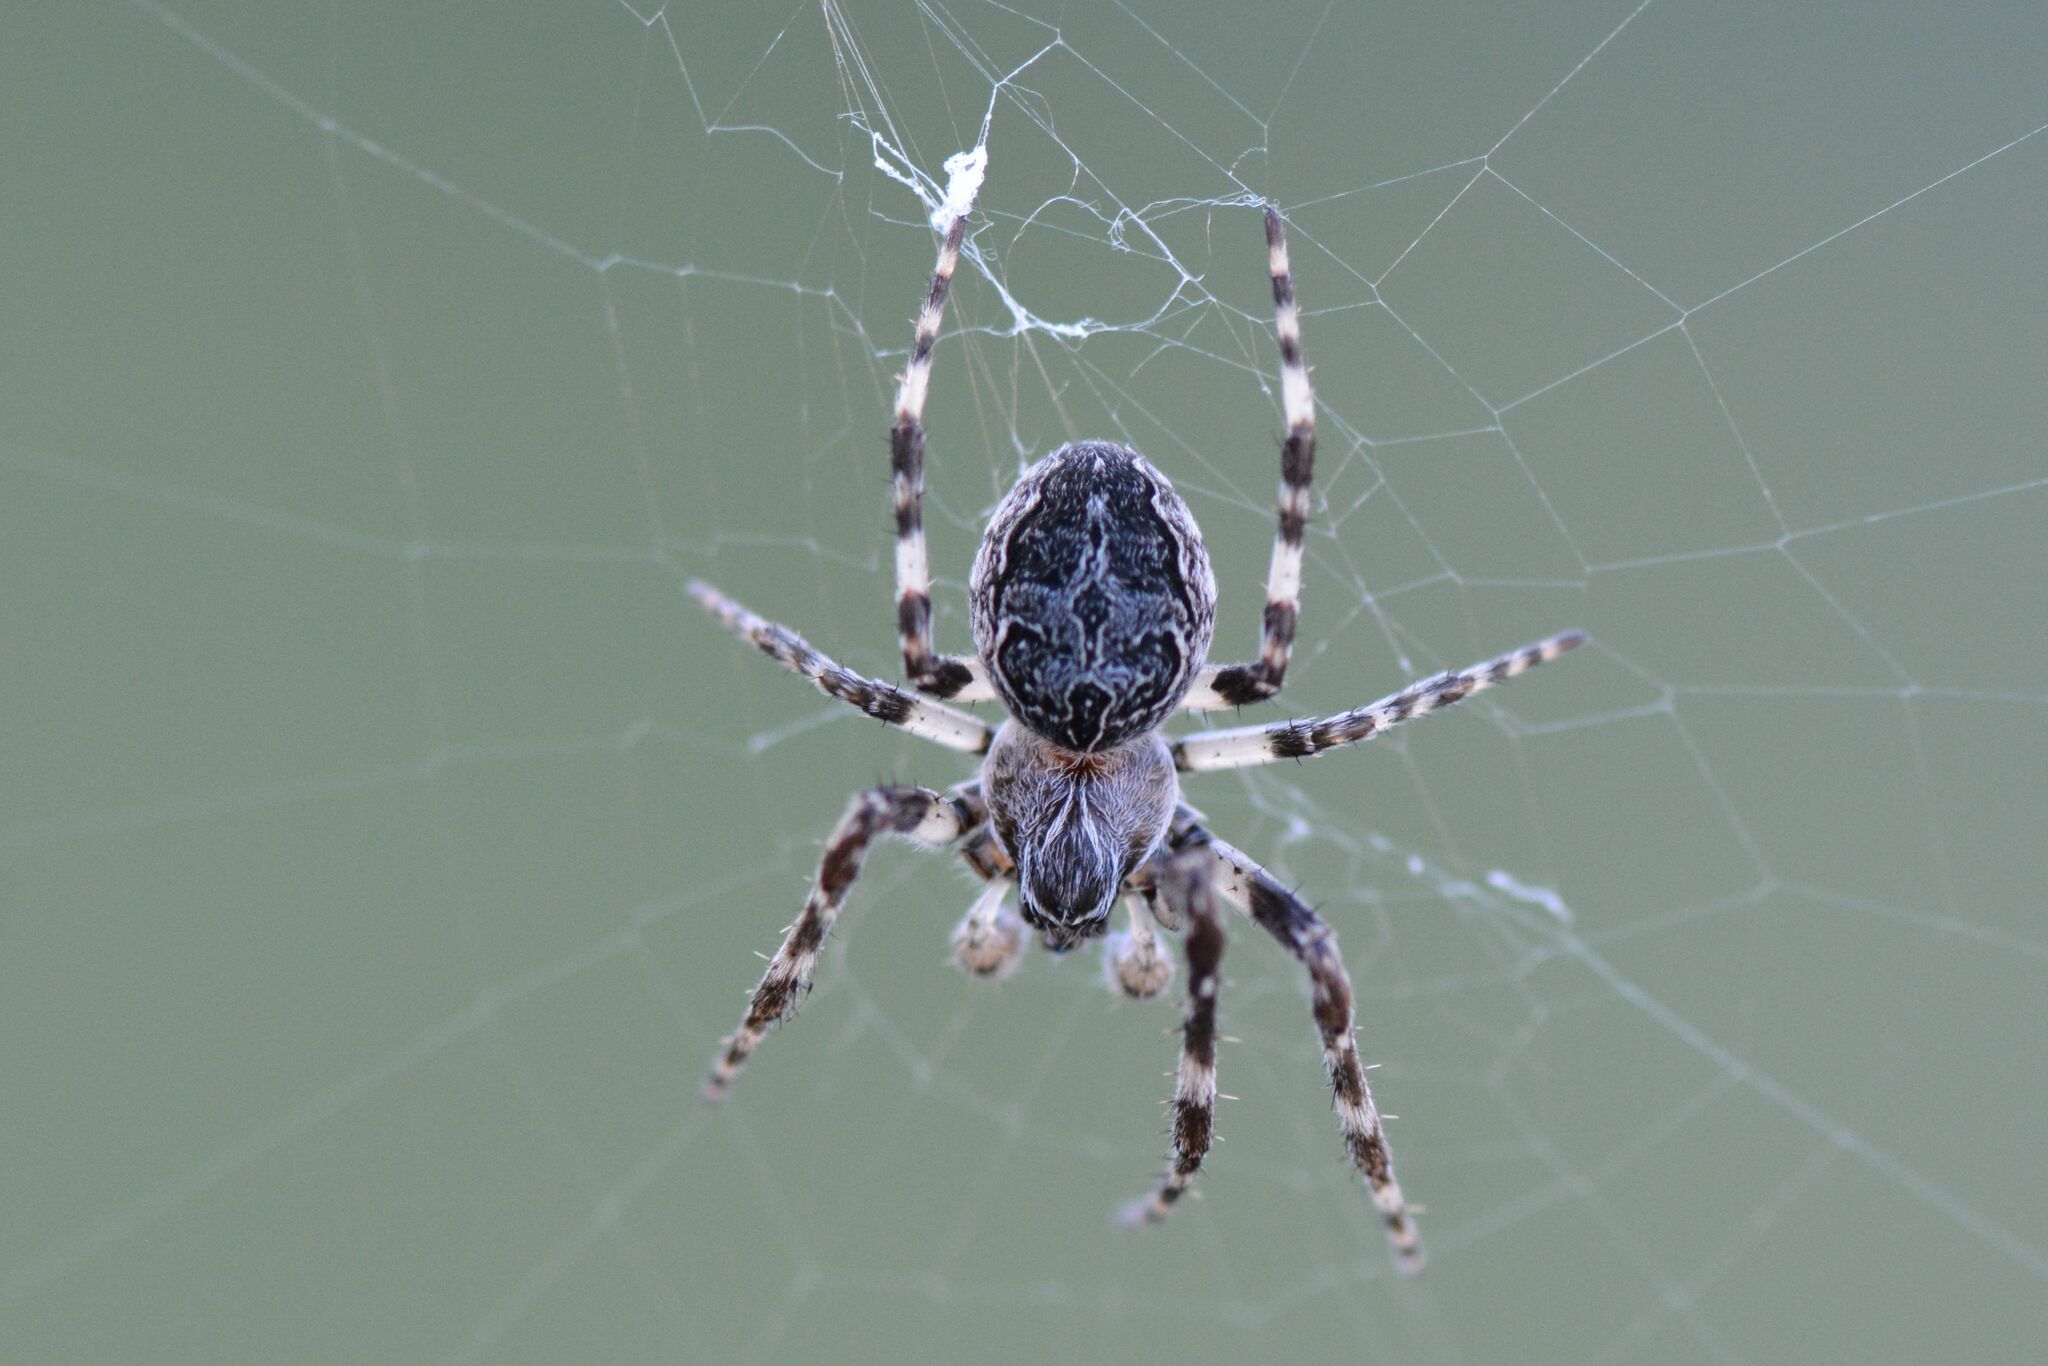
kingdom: Animalia
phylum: Arthropoda
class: Arachnida
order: Araneae
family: Araneidae
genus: Larinioides
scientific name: Larinioides sclopetarius
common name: Bridge orbweaver
